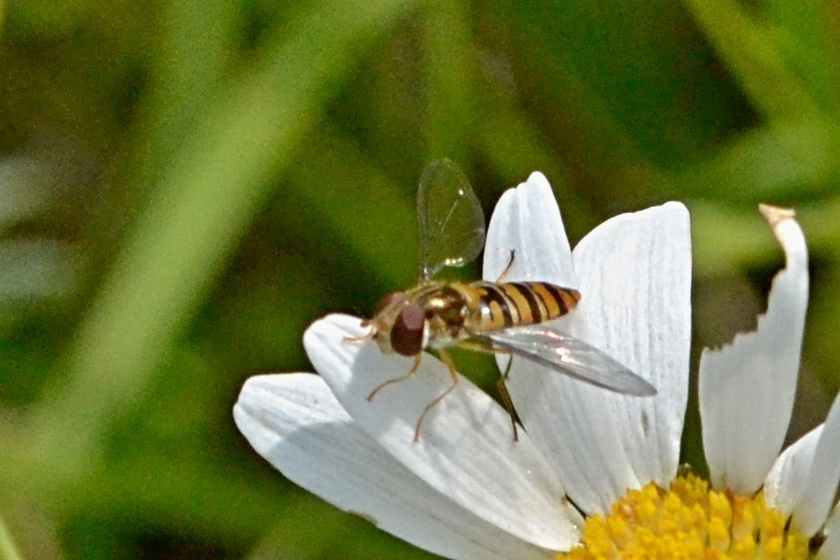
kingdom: Animalia
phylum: Arthropoda
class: Insecta
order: Diptera
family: Syrphidae
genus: Episyrphus
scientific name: Episyrphus balteatus
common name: Marmalade hoverfly
